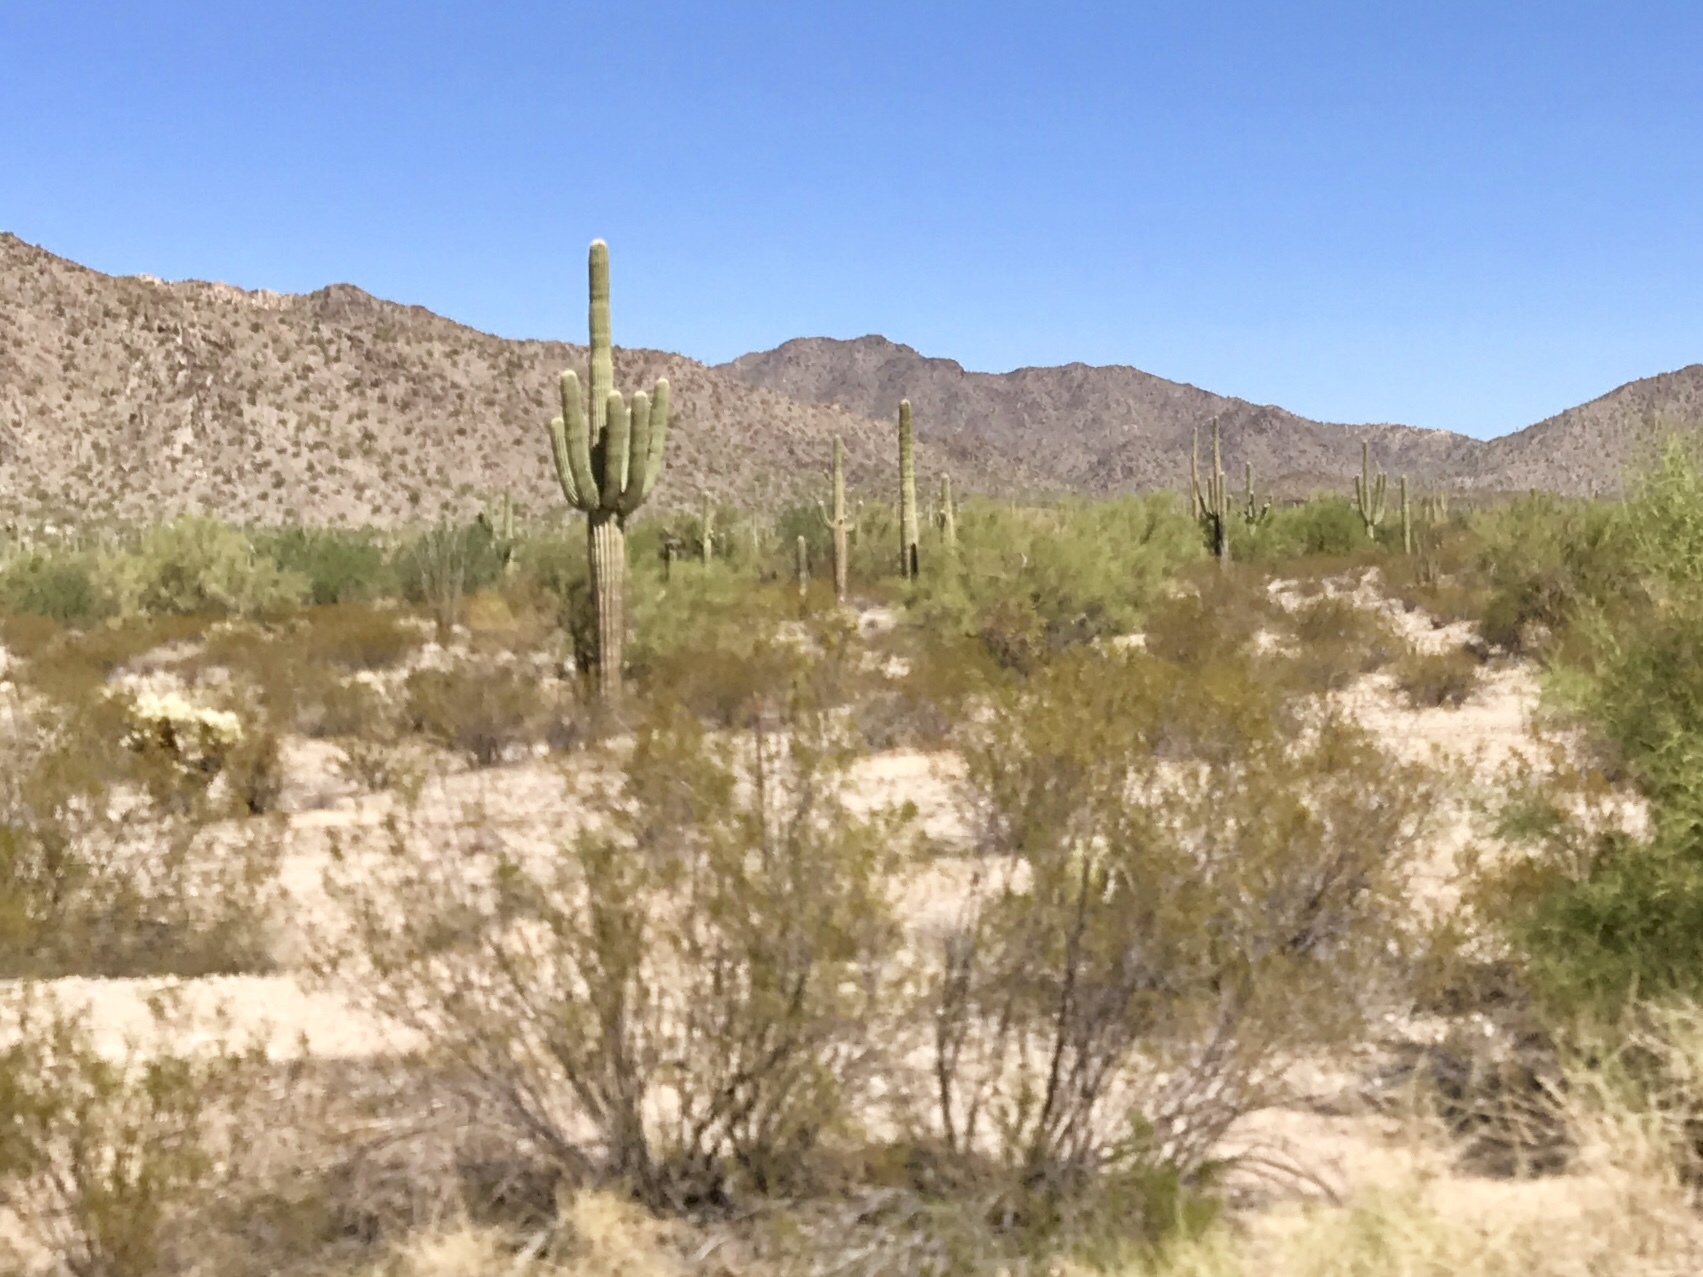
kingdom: Plantae
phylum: Tracheophyta
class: Magnoliopsida
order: Zygophyllales
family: Zygophyllaceae
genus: Larrea
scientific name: Larrea tridentata
